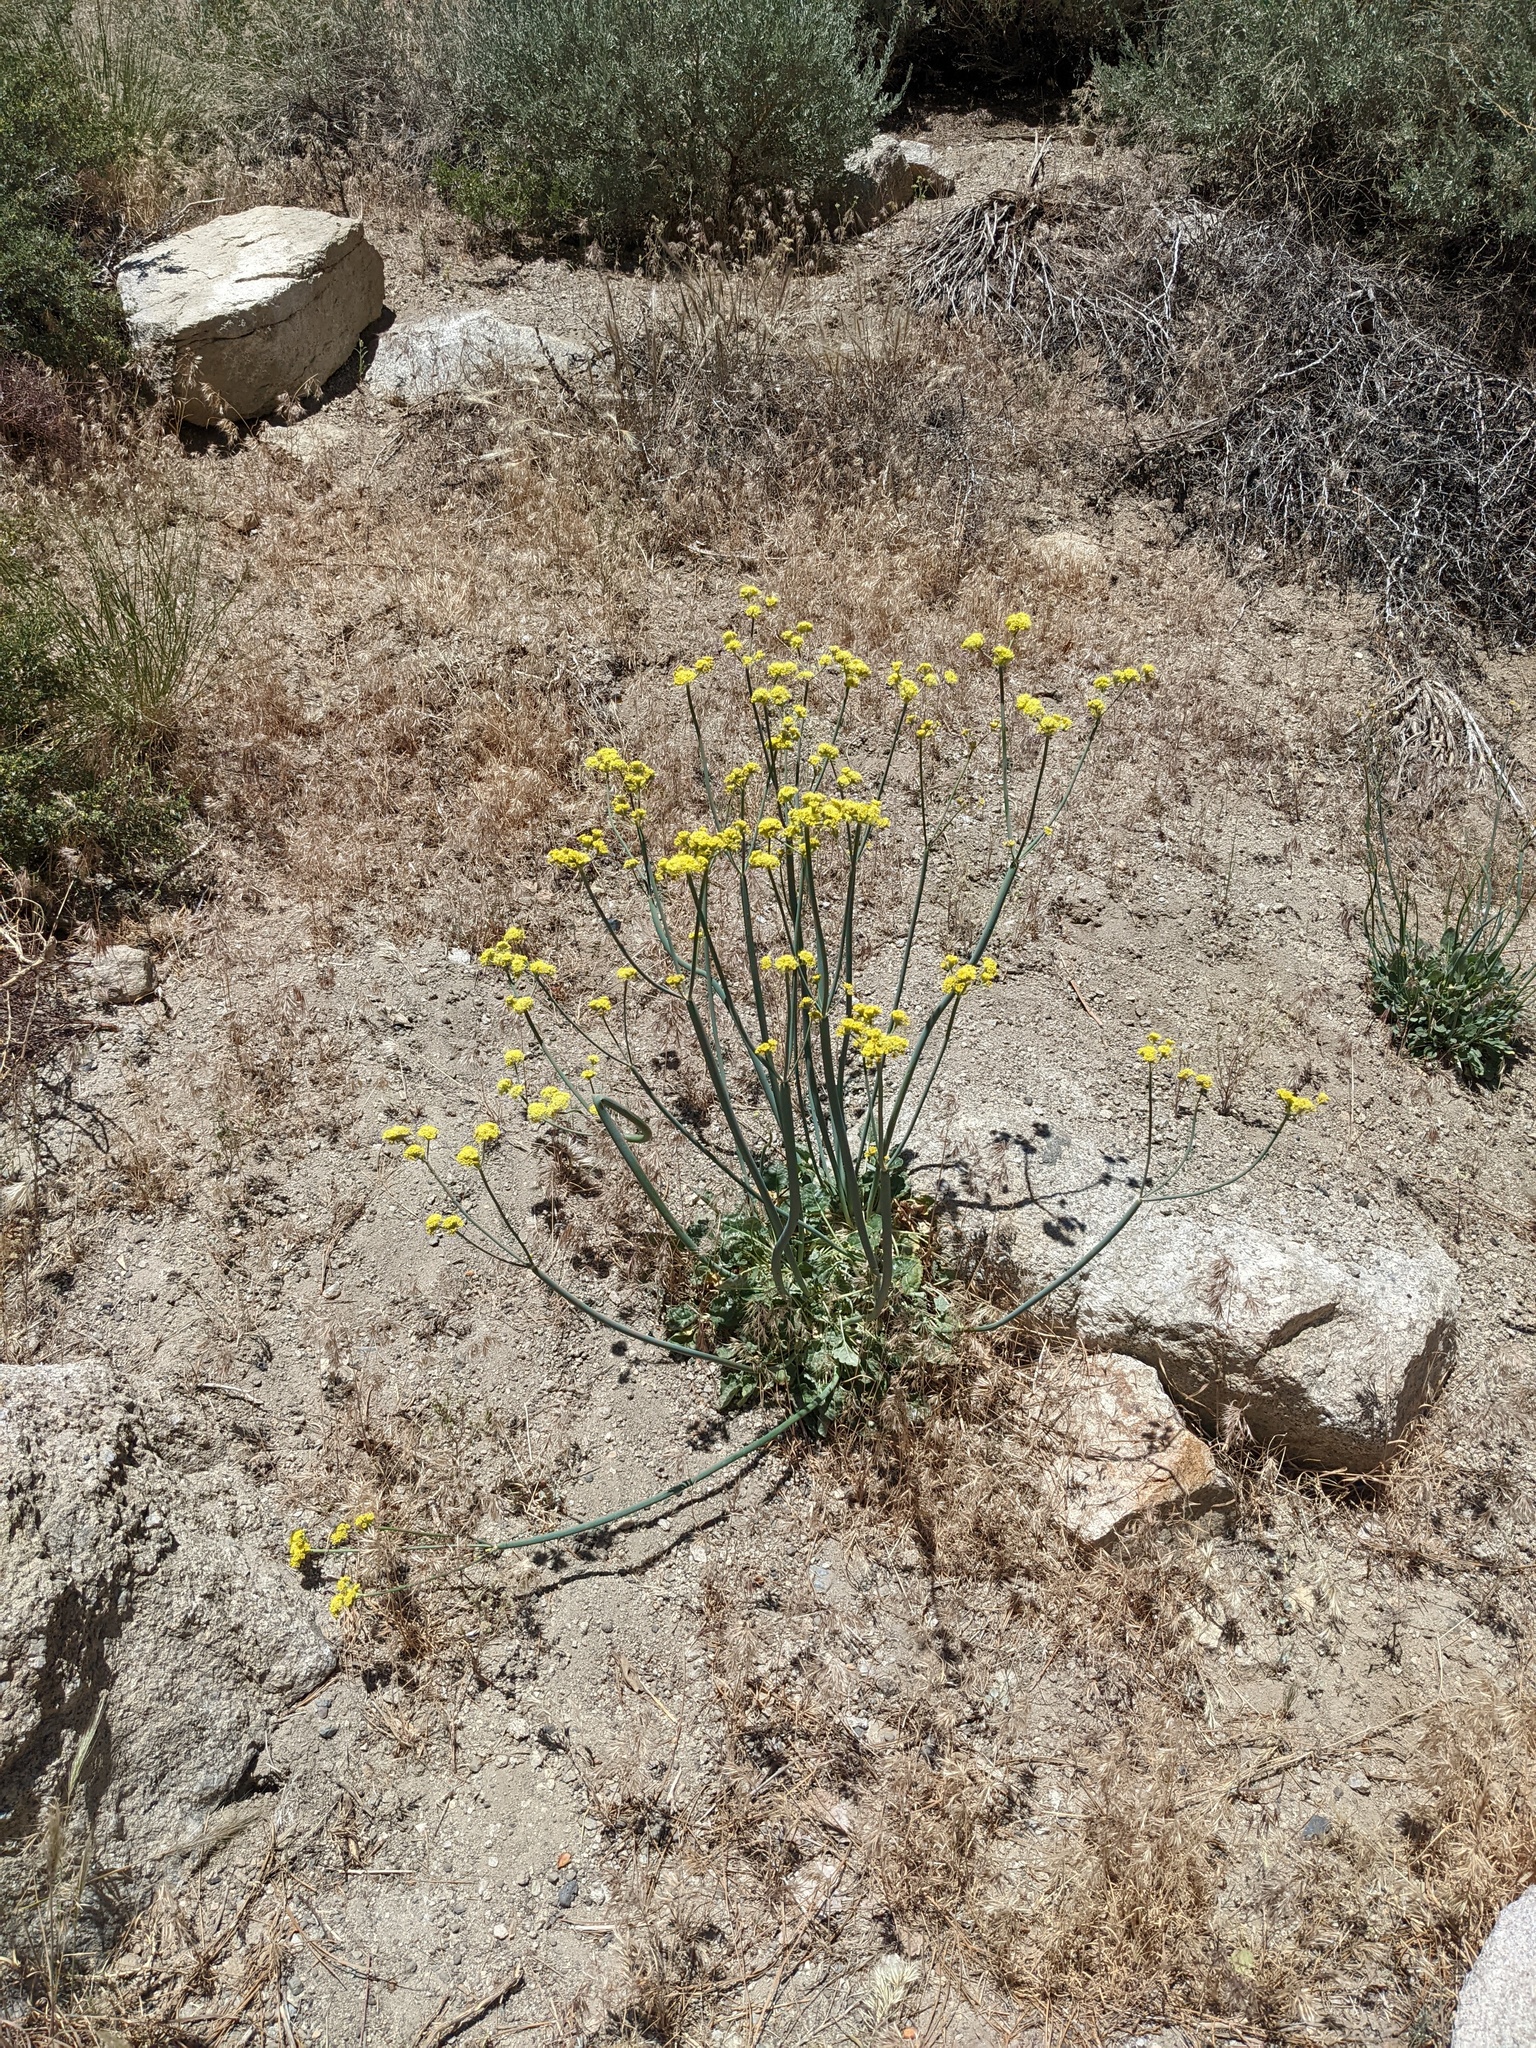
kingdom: Plantae
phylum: Tracheophyta
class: Magnoliopsida
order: Caryophyllales
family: Polygonaceae
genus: Eriogonum
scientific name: Eriogonum nudum
